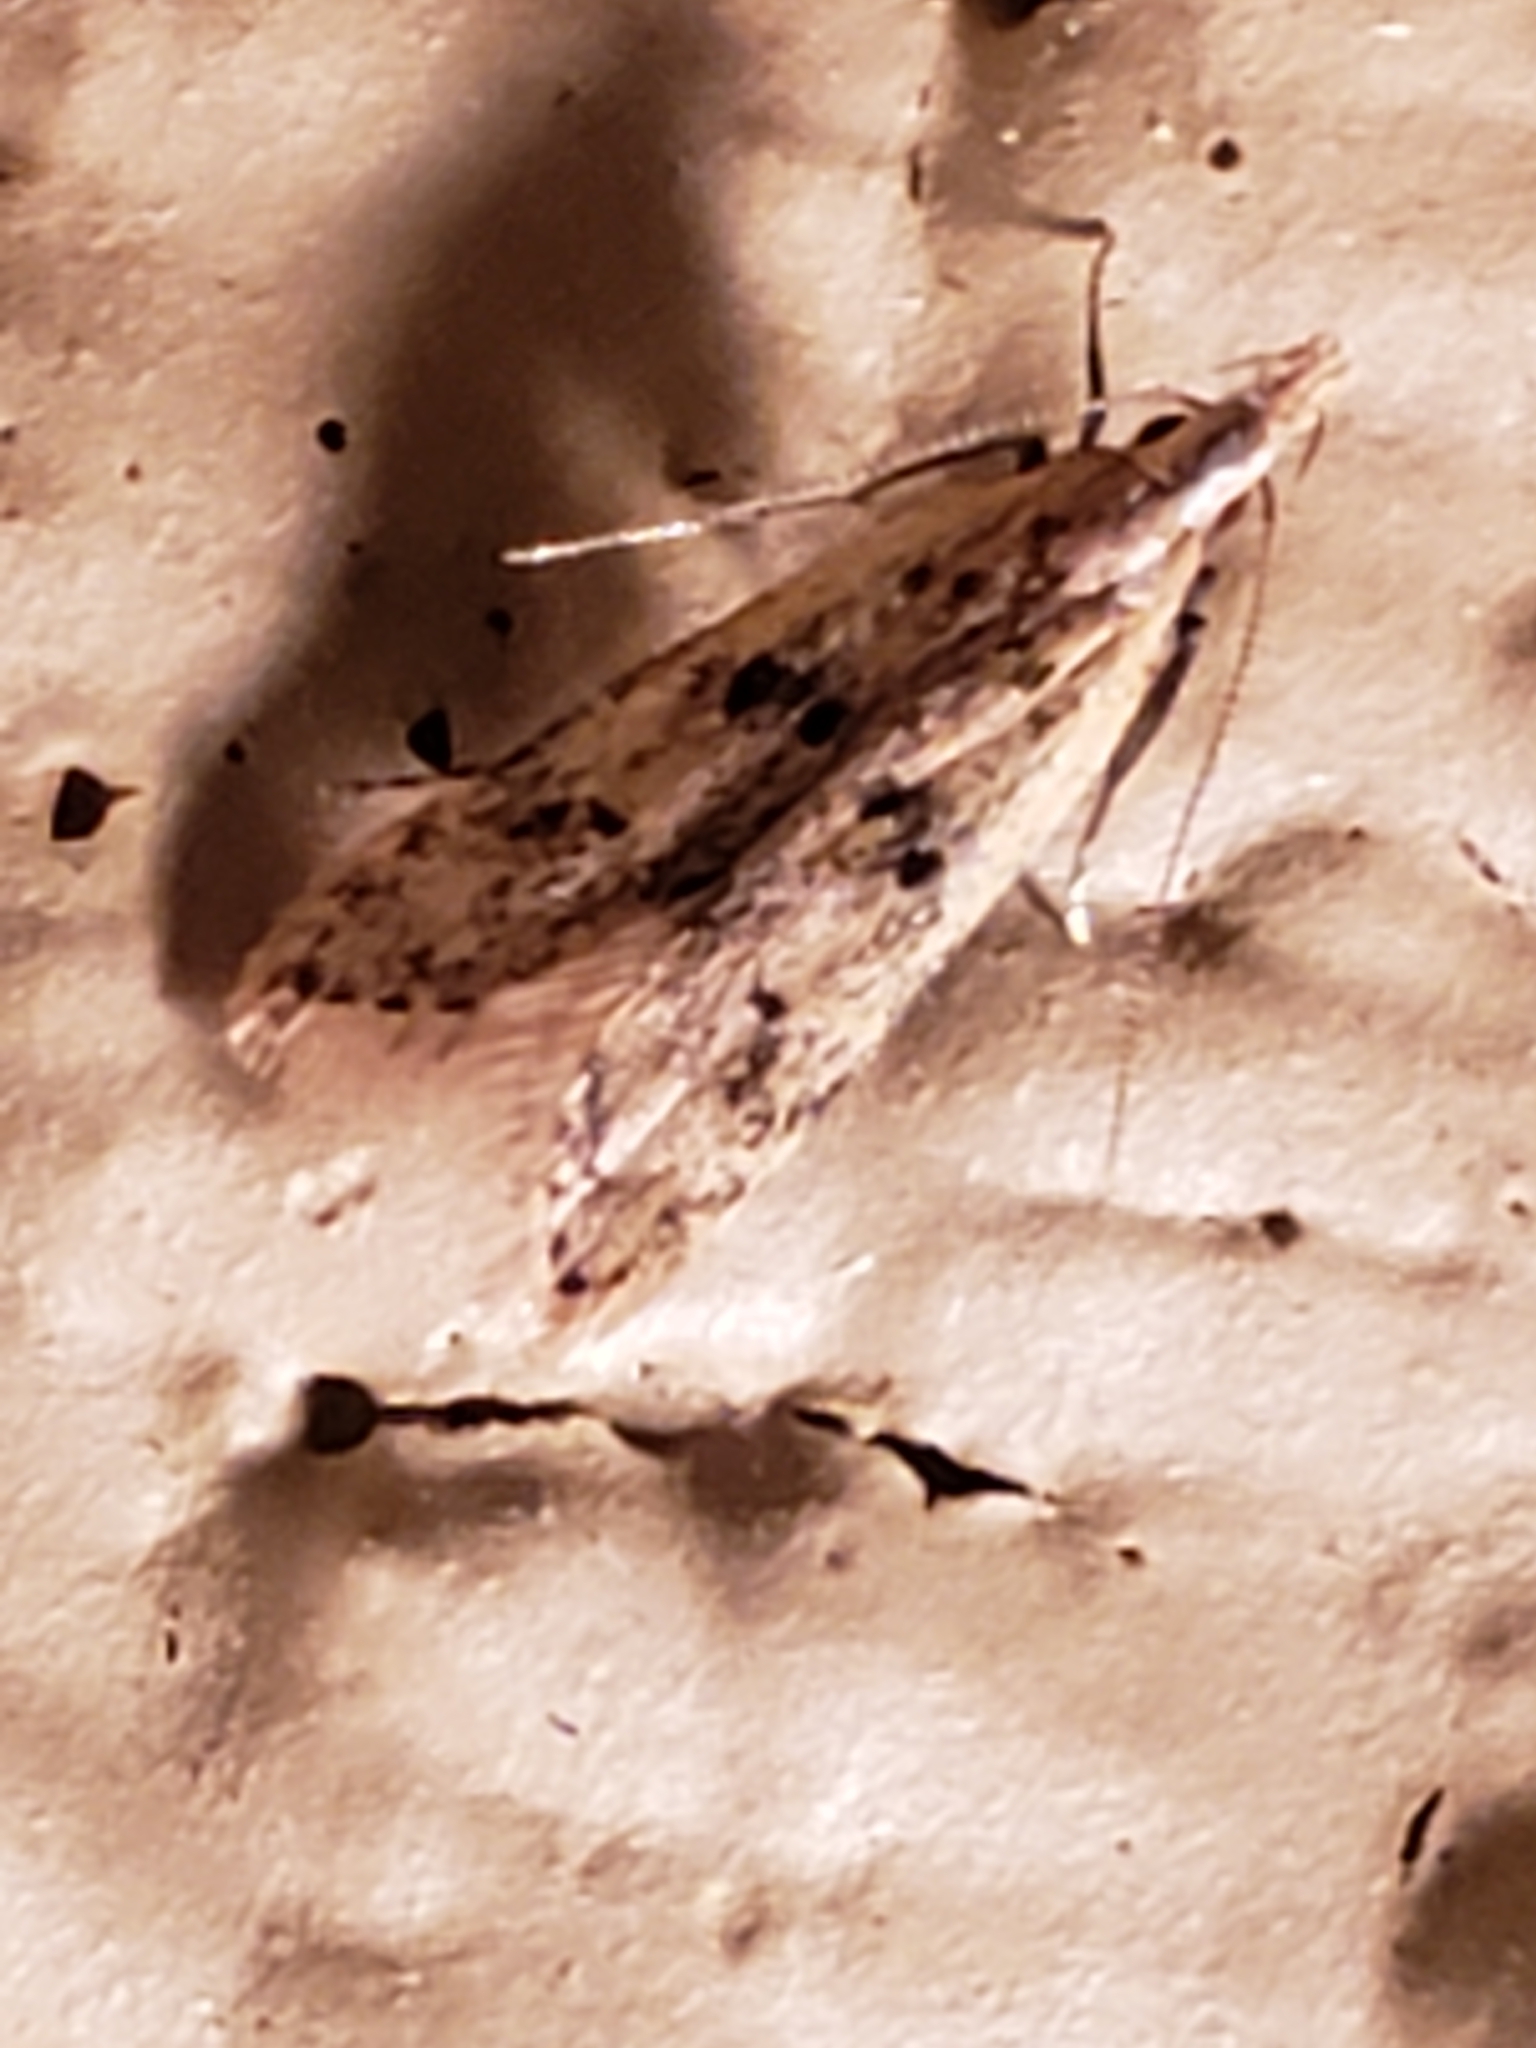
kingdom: Animalia
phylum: Arthropoda
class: Insecta
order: Lepidoptera
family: Gelechiidae
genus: Dichomeris
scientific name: Dichomeris punctipennella
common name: Many-spotted dichomeris moth
